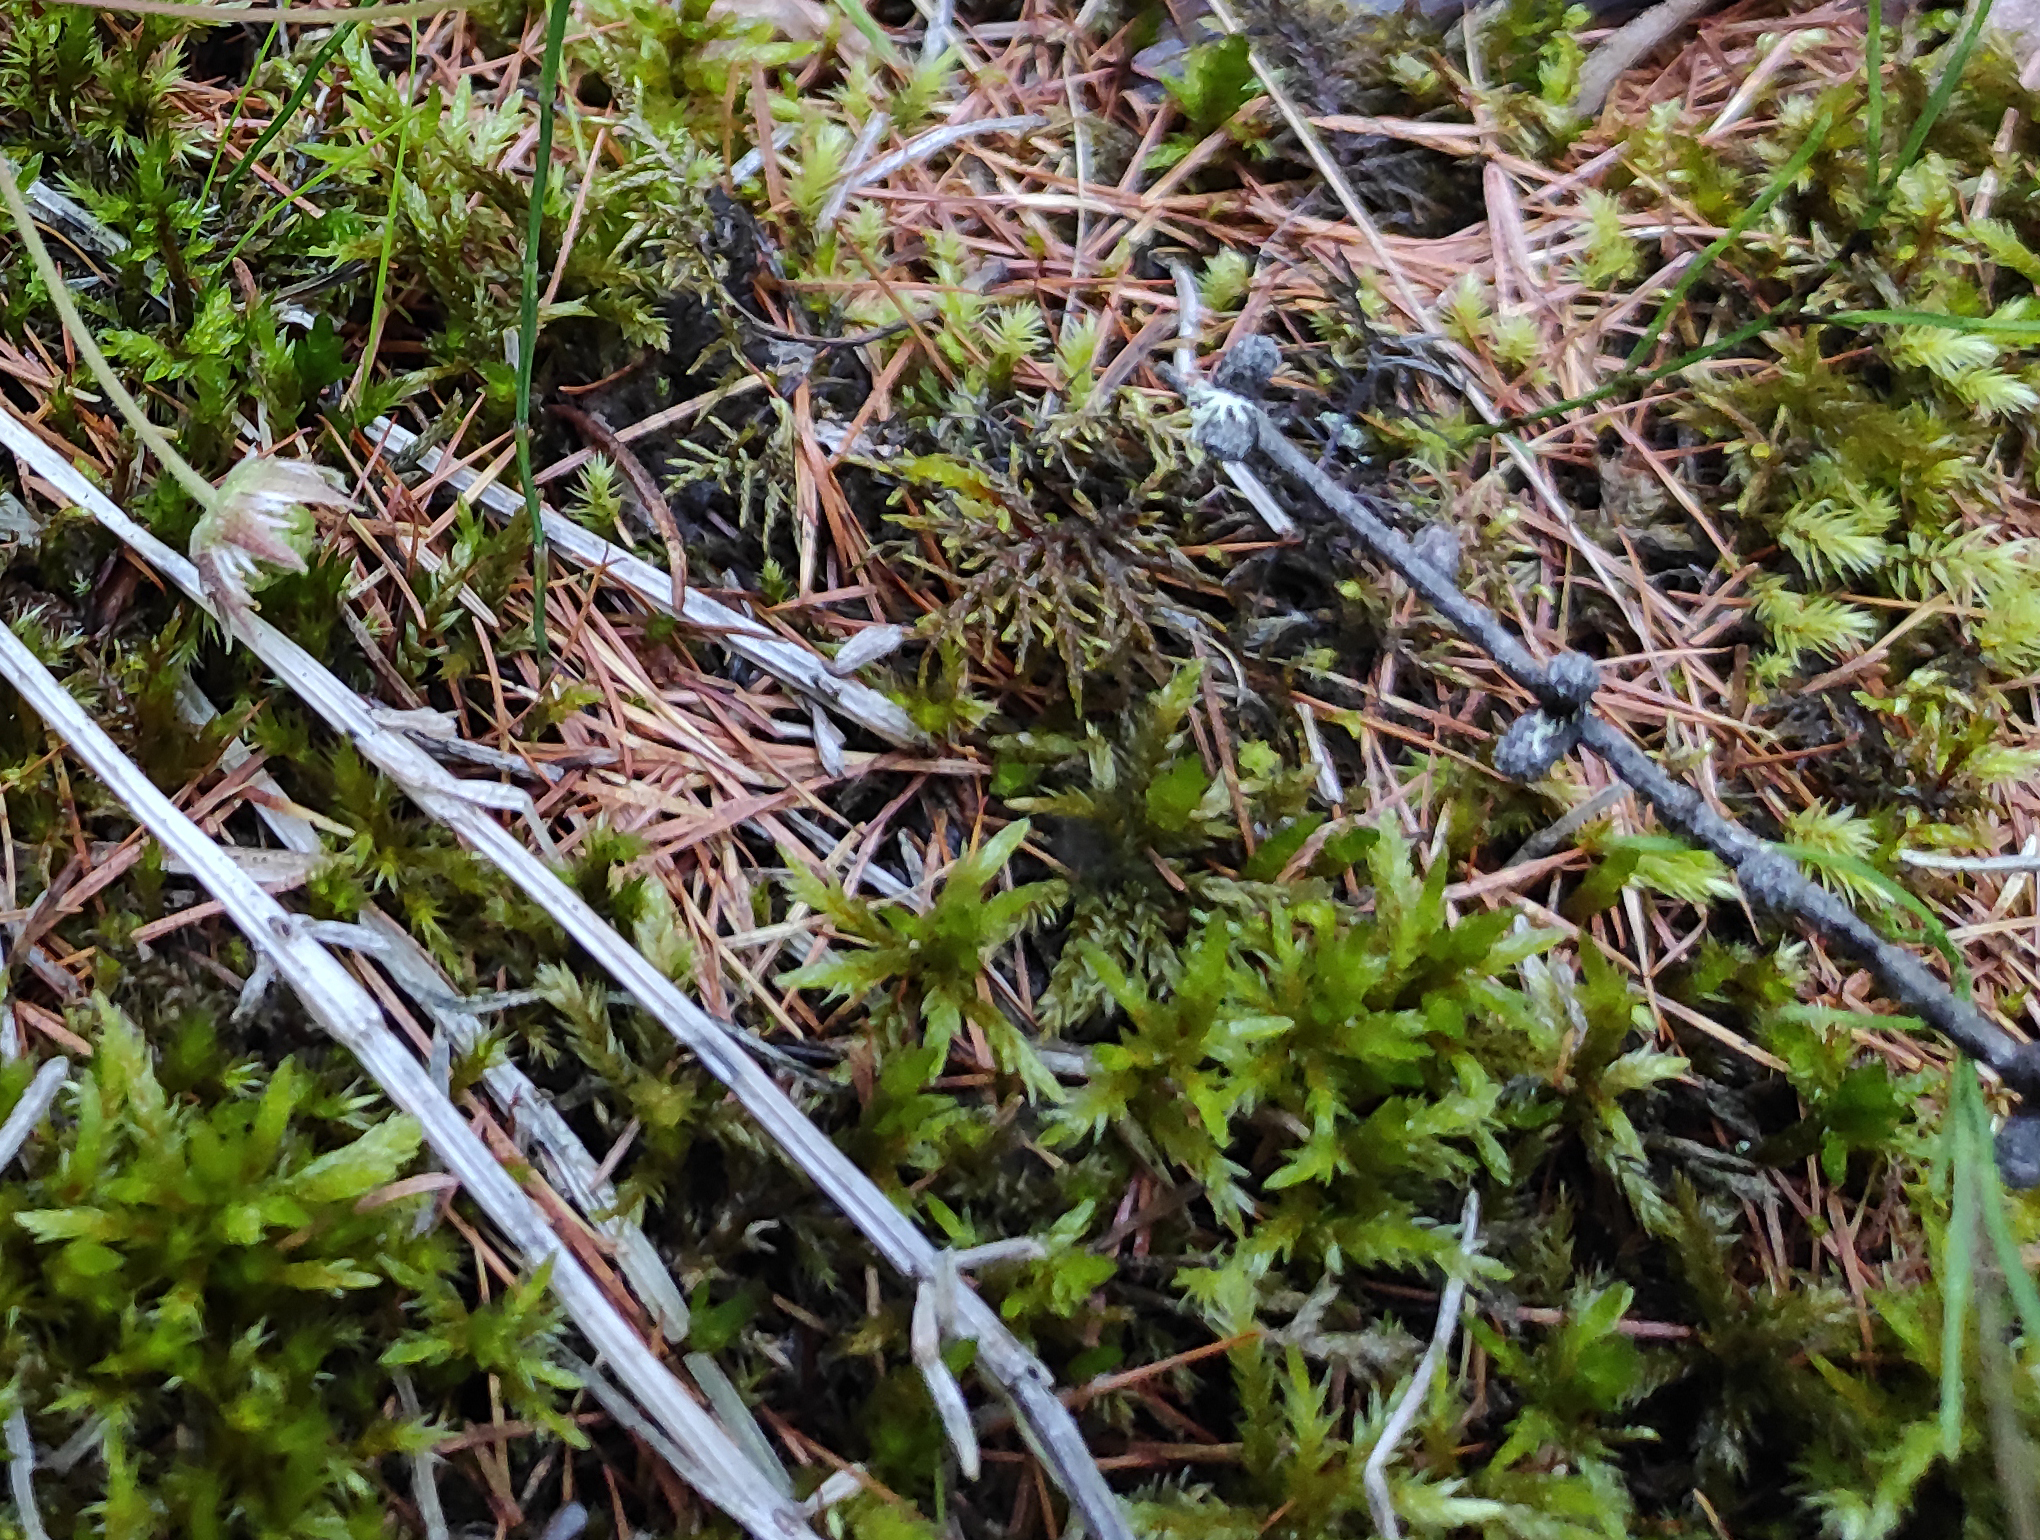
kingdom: Plantae
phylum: Tracheophyta
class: Magnoliopsida
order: Rosales
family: Rosaceae
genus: Rubus
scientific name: Rubus arcticus
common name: Arctic bramble
